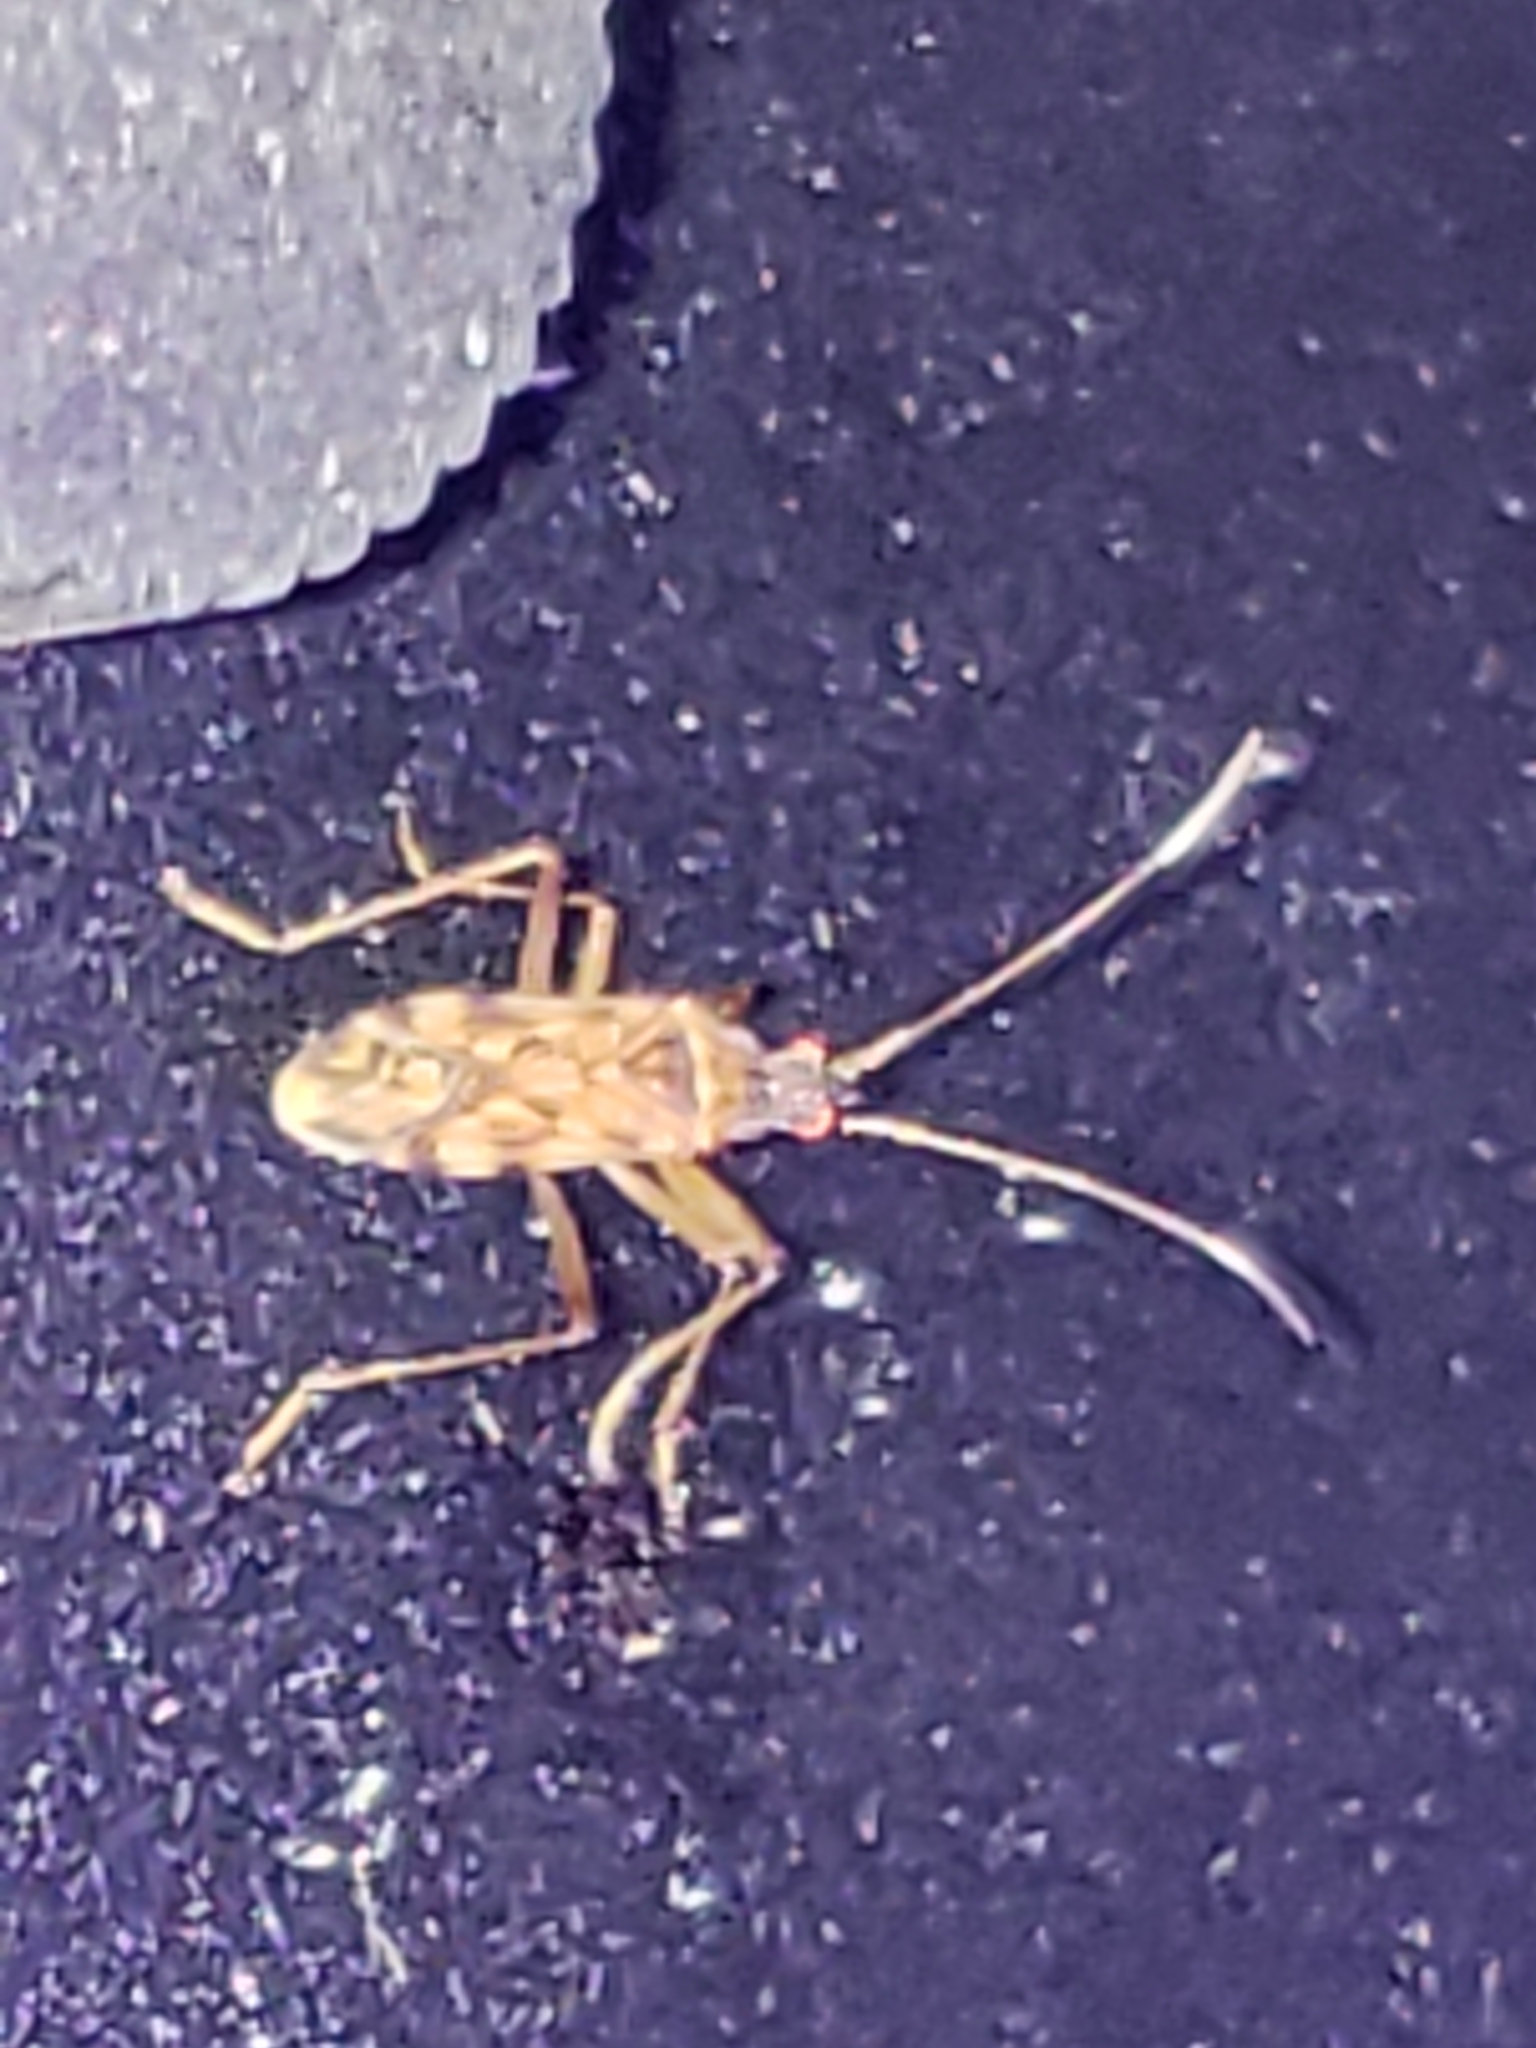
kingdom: Animalia
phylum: Arthropoda
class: Insecta
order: Hemiptera
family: Rhyparochromidae
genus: Ozophora
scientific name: Ozophora picturata
